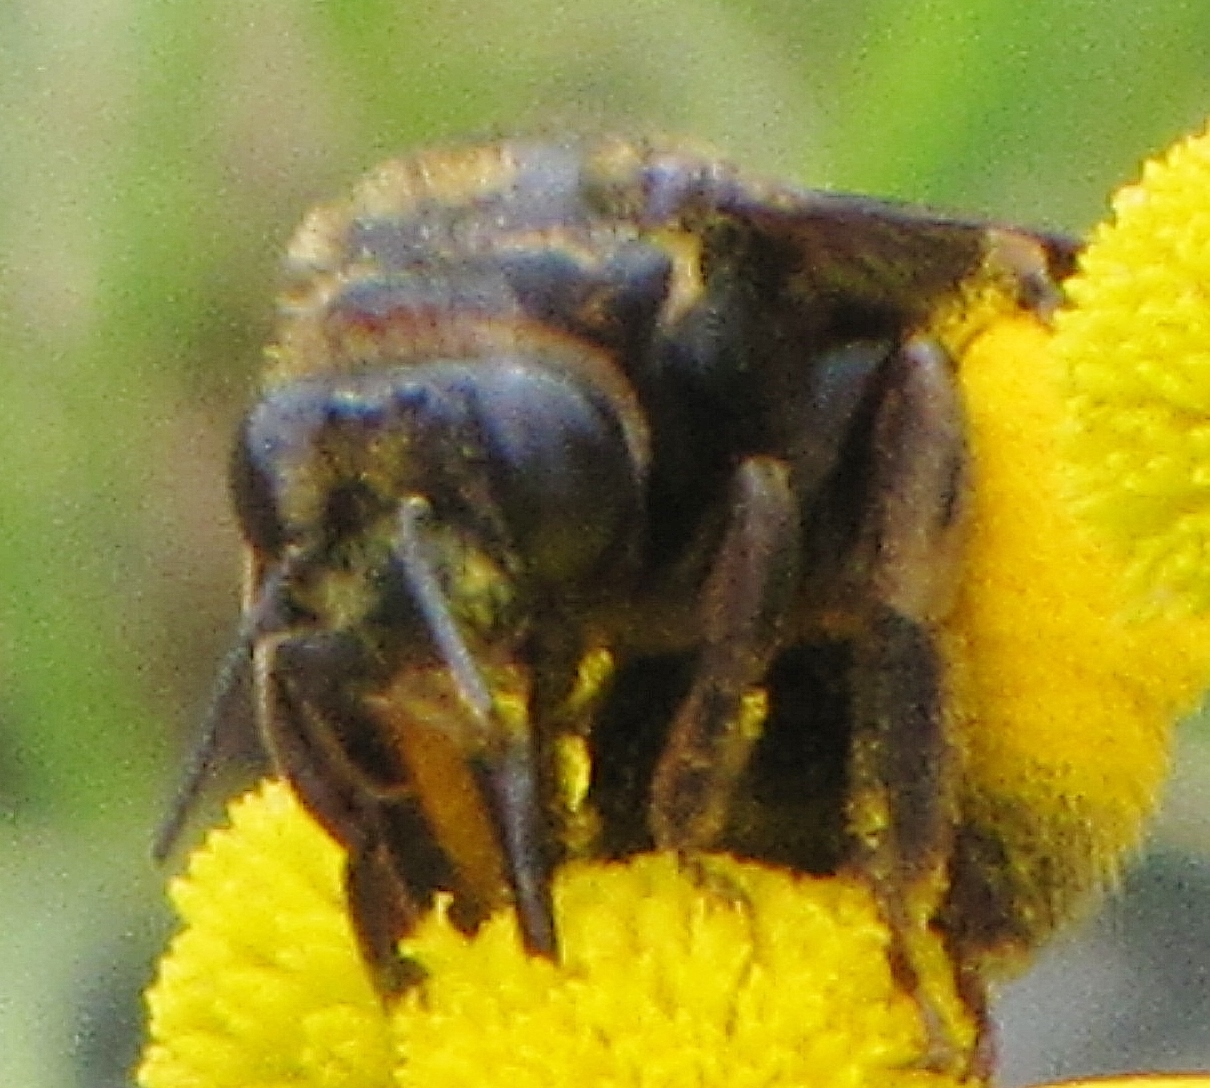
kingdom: Animalia
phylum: Arthropoda
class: Insecta
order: Hymenoptera
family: Apidae
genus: Svastra
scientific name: Svastra obliqua
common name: Oblique longhorn
